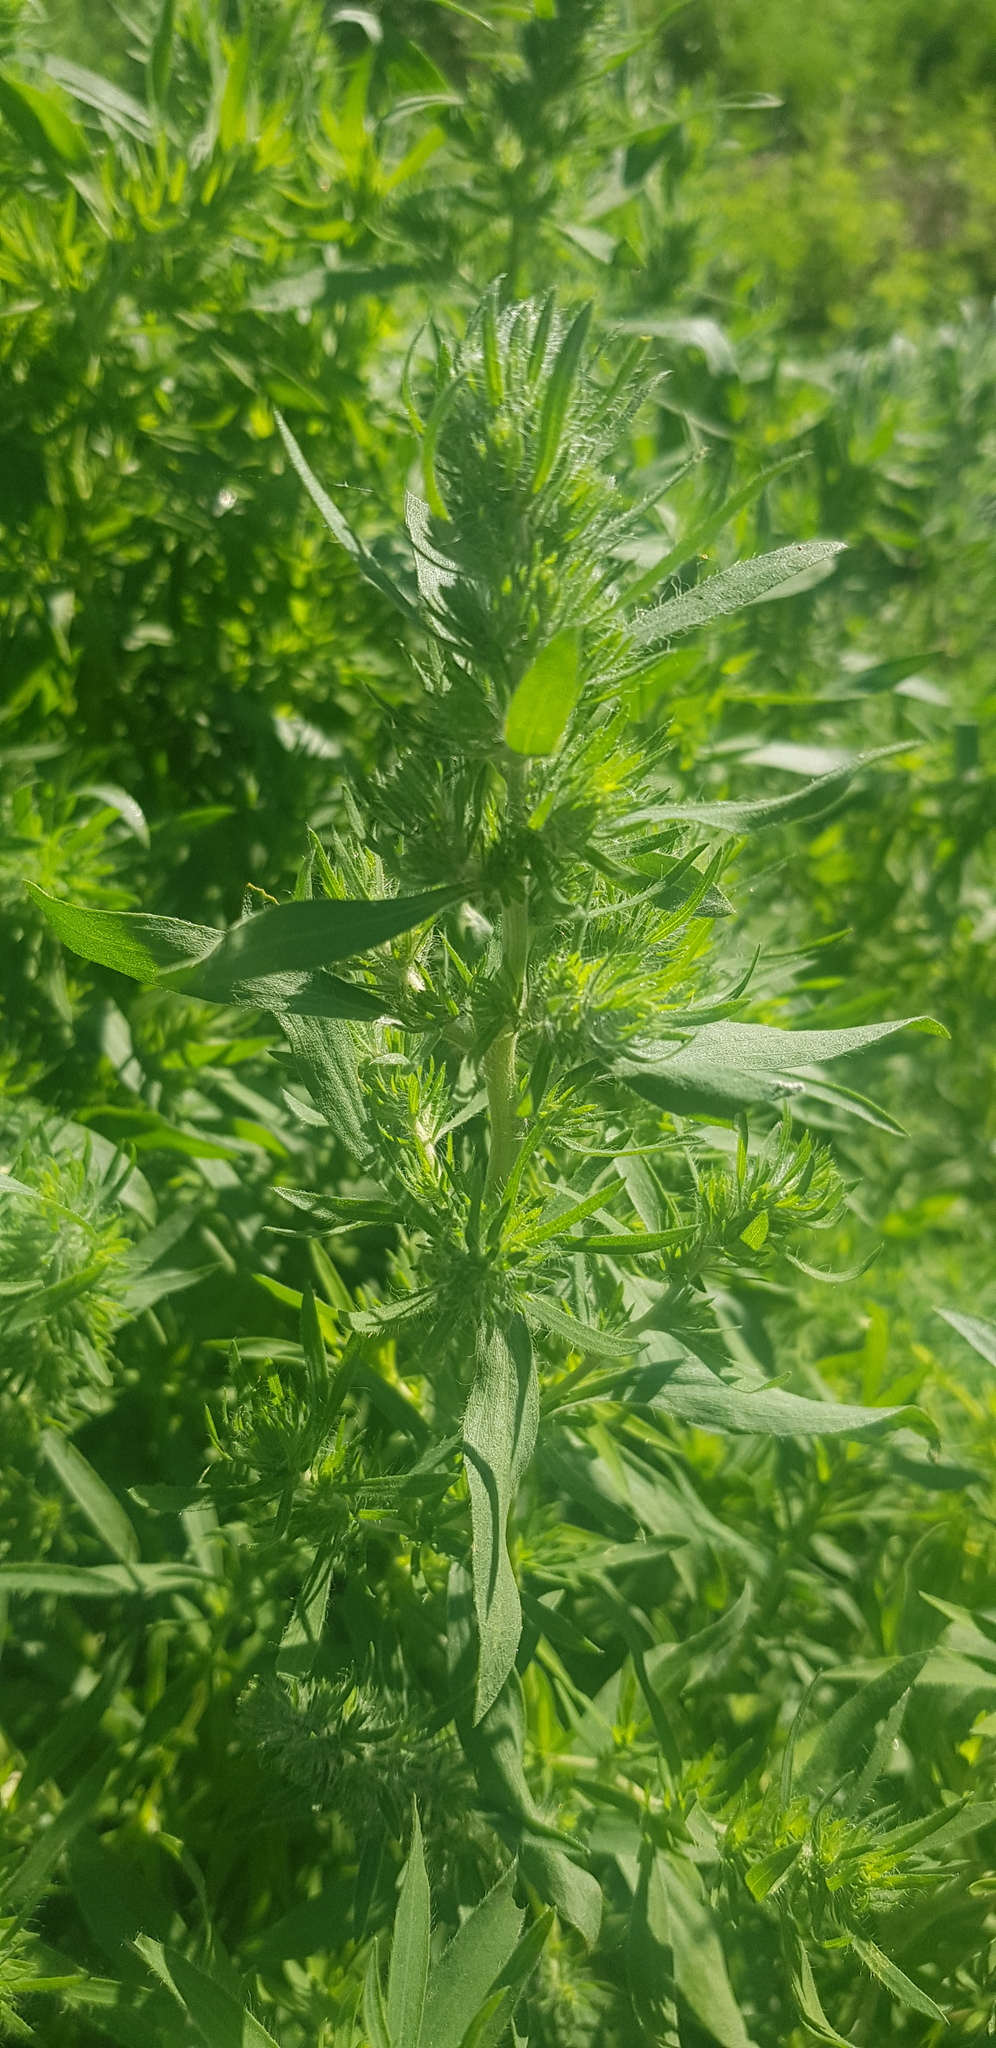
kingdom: Plantae
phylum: Tracheophyta
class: Magnoliopsida
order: Caryophyllales
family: Amaranthaceae
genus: Bassia
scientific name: Bassia scoparia
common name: Belvedere
